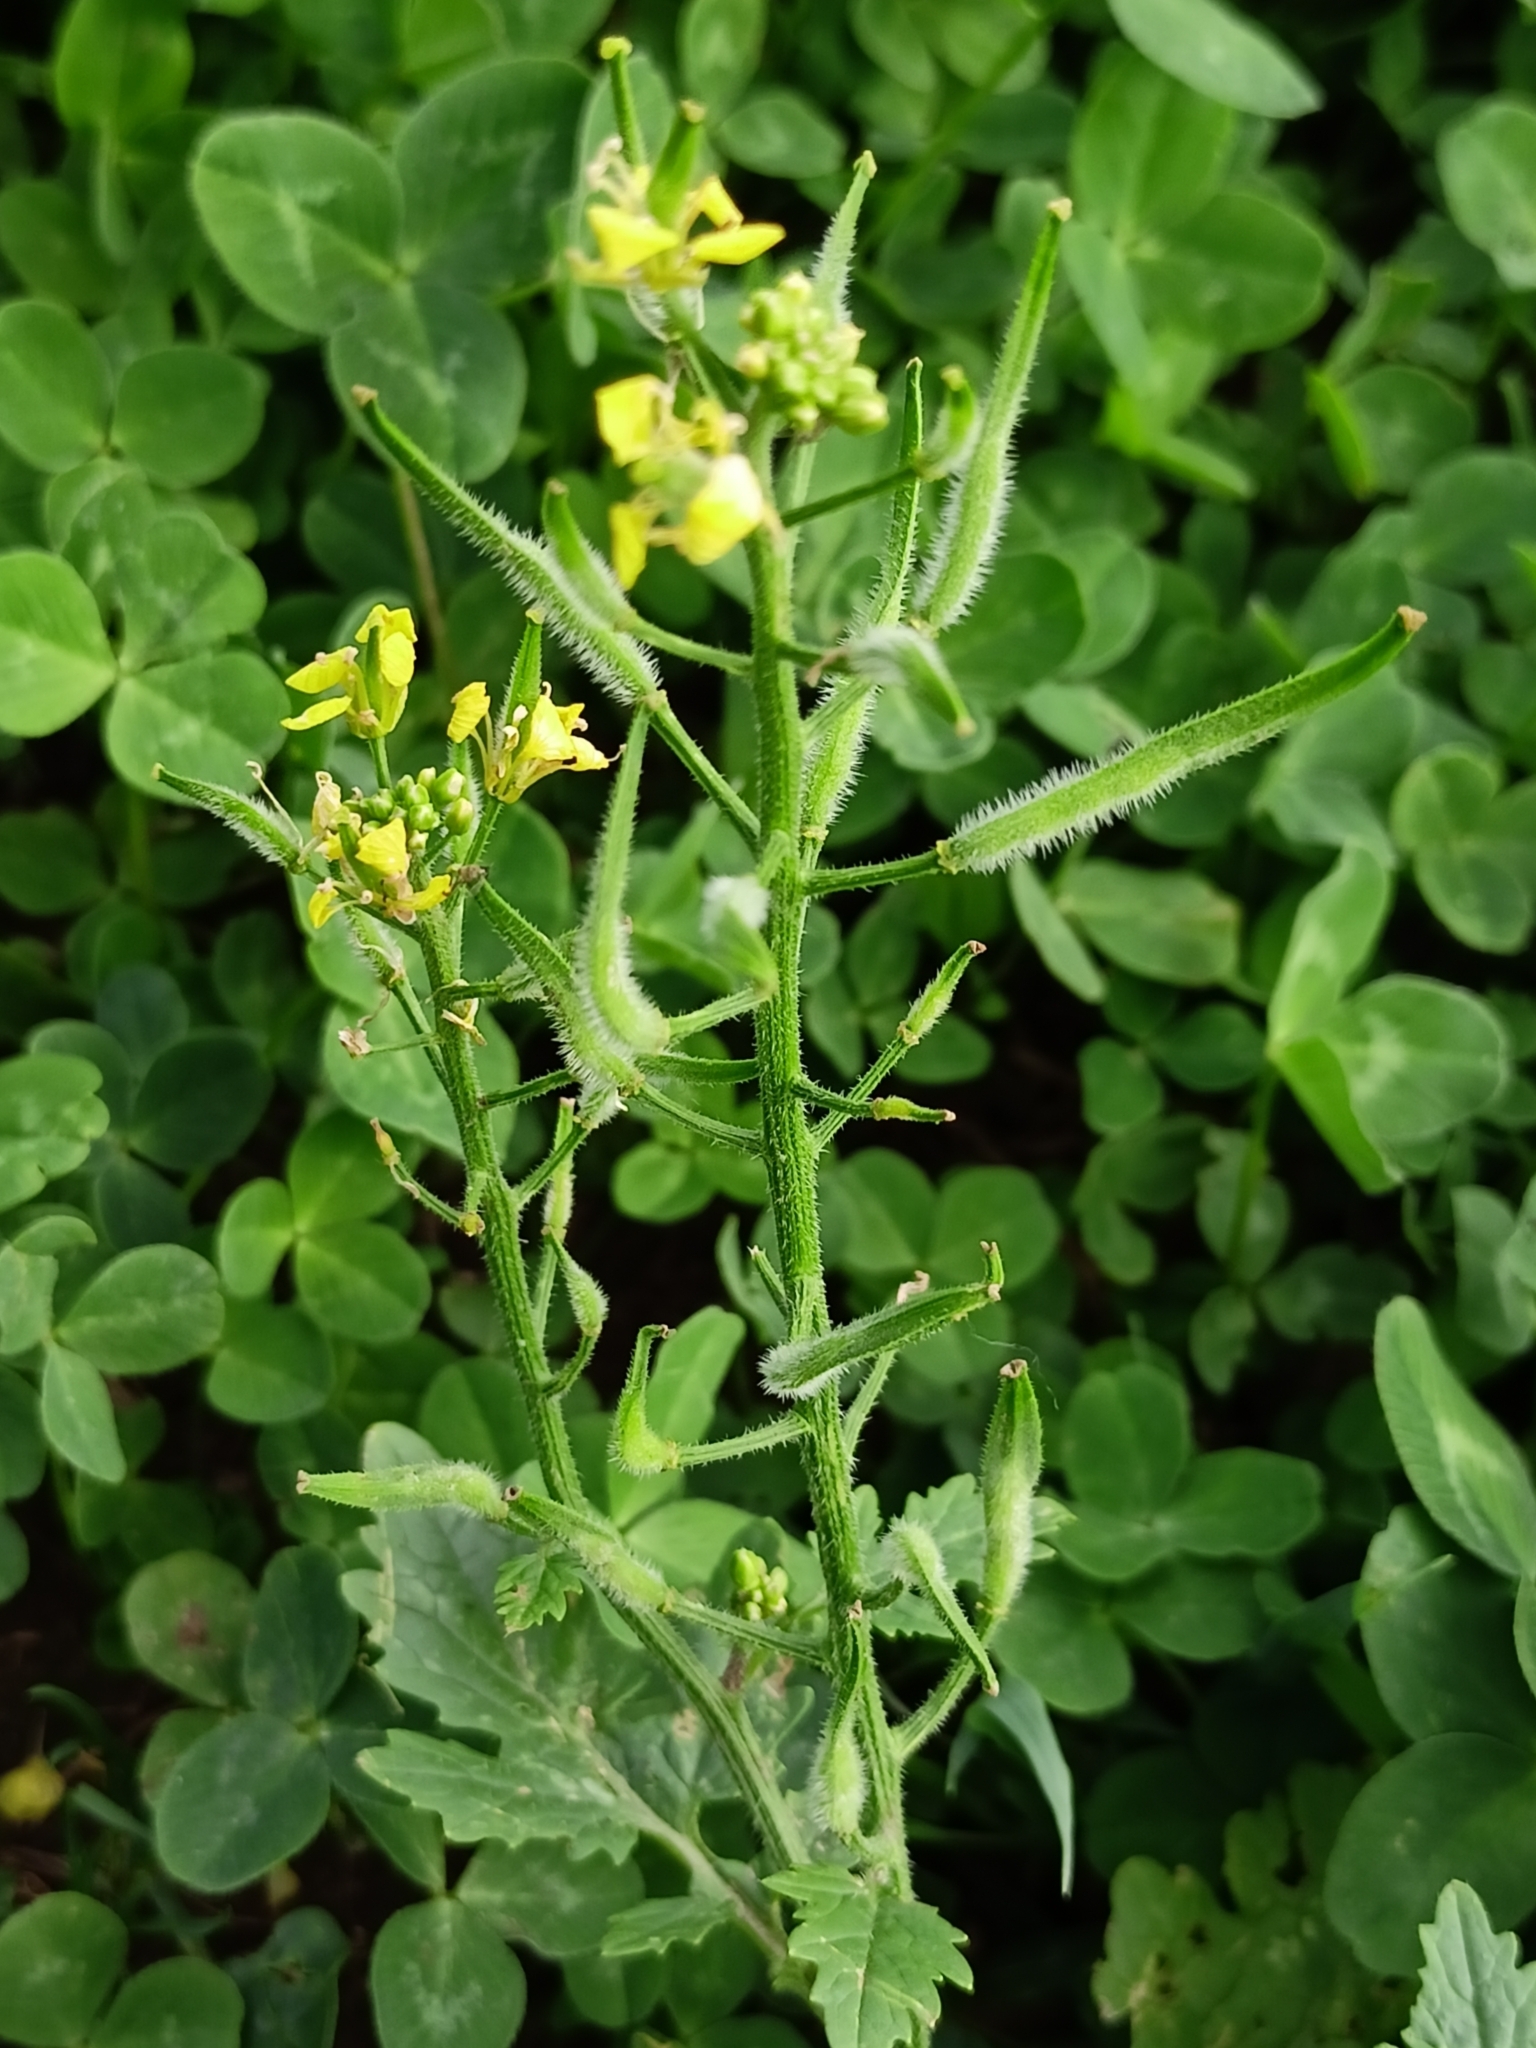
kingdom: Plantae
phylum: Tracheophyta
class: Magnoliopsida
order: Brassicales
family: Brassicaceae
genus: Sinapis
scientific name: Sinapis alba
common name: White mustard
